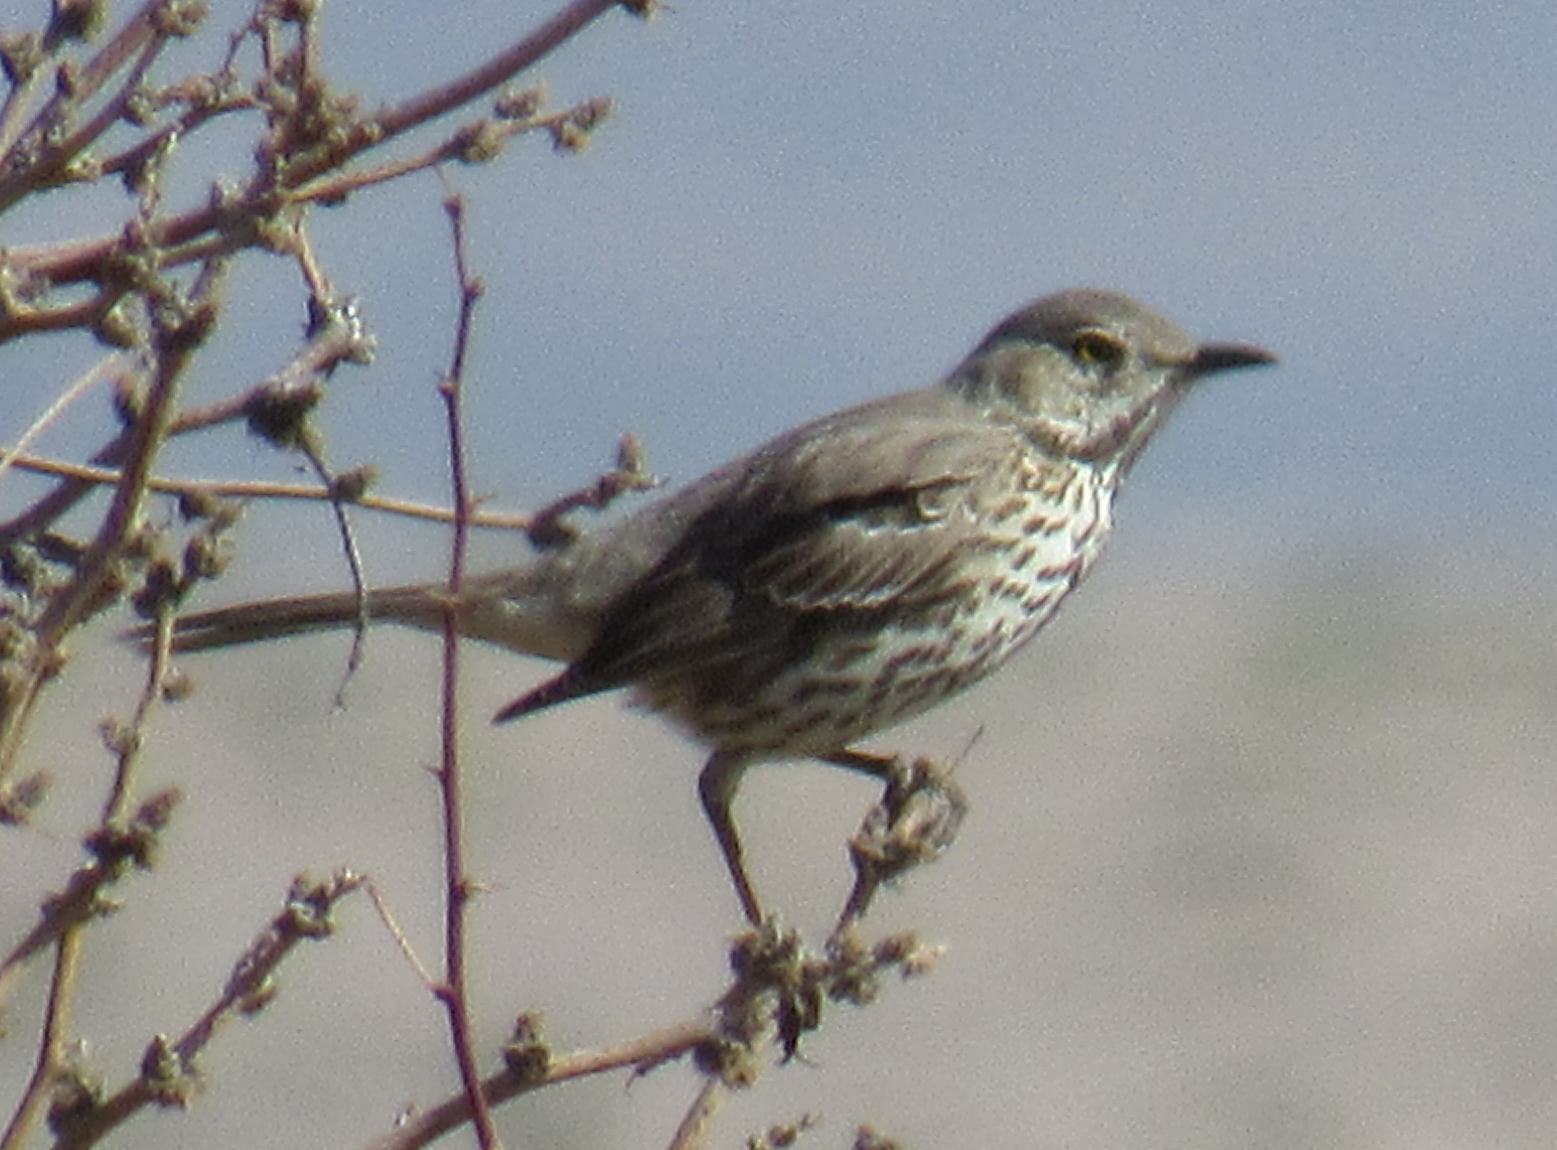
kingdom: Animalia
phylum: Chordata
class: Aves
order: Passeriformes
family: Mimidae
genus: Oreoscoptes
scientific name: Oreoscoptes montanus
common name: Sage thrasher
